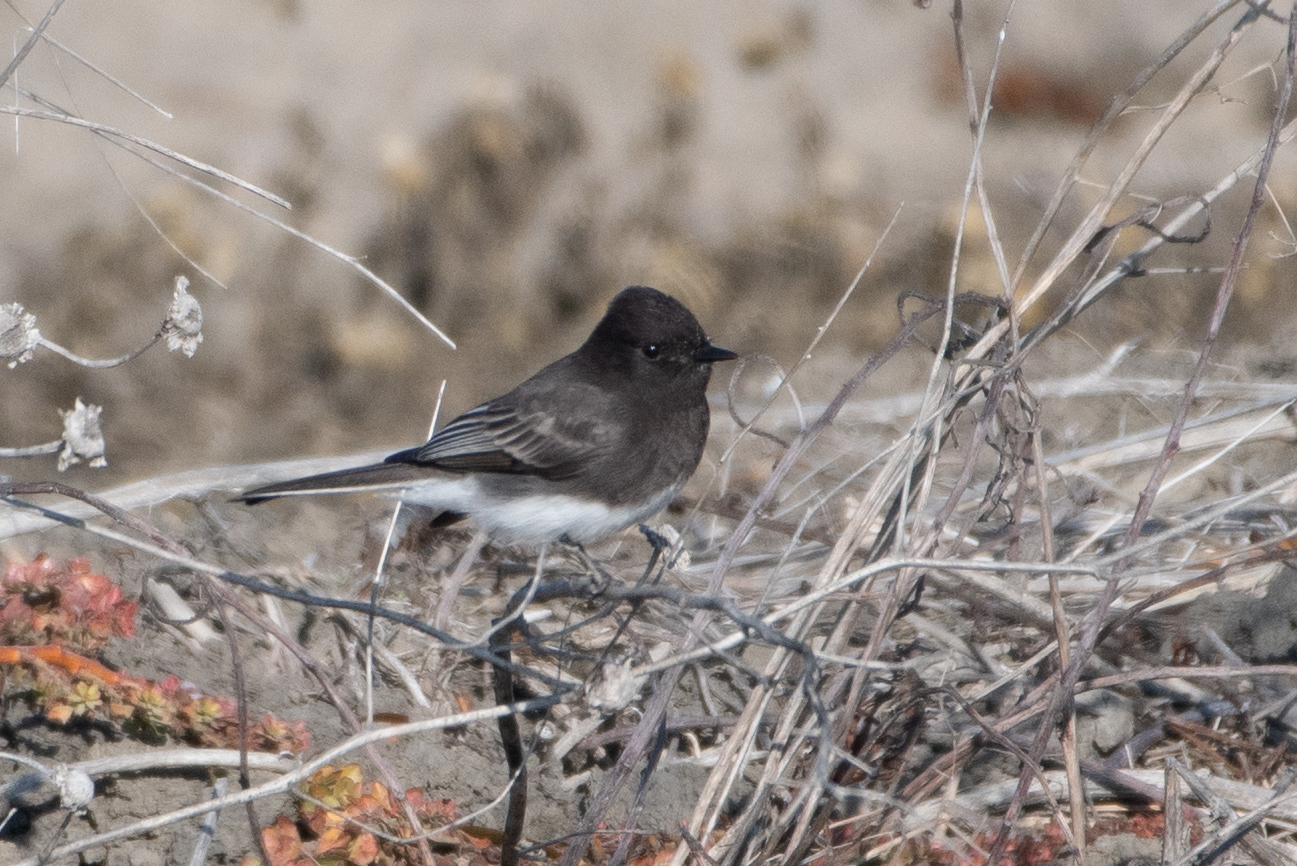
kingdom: Animalia
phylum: Chordata
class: Aves
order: Passeriformes
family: Tyrannidae
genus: Sayornis
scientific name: Sayornis nigricans
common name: Black phoebe
